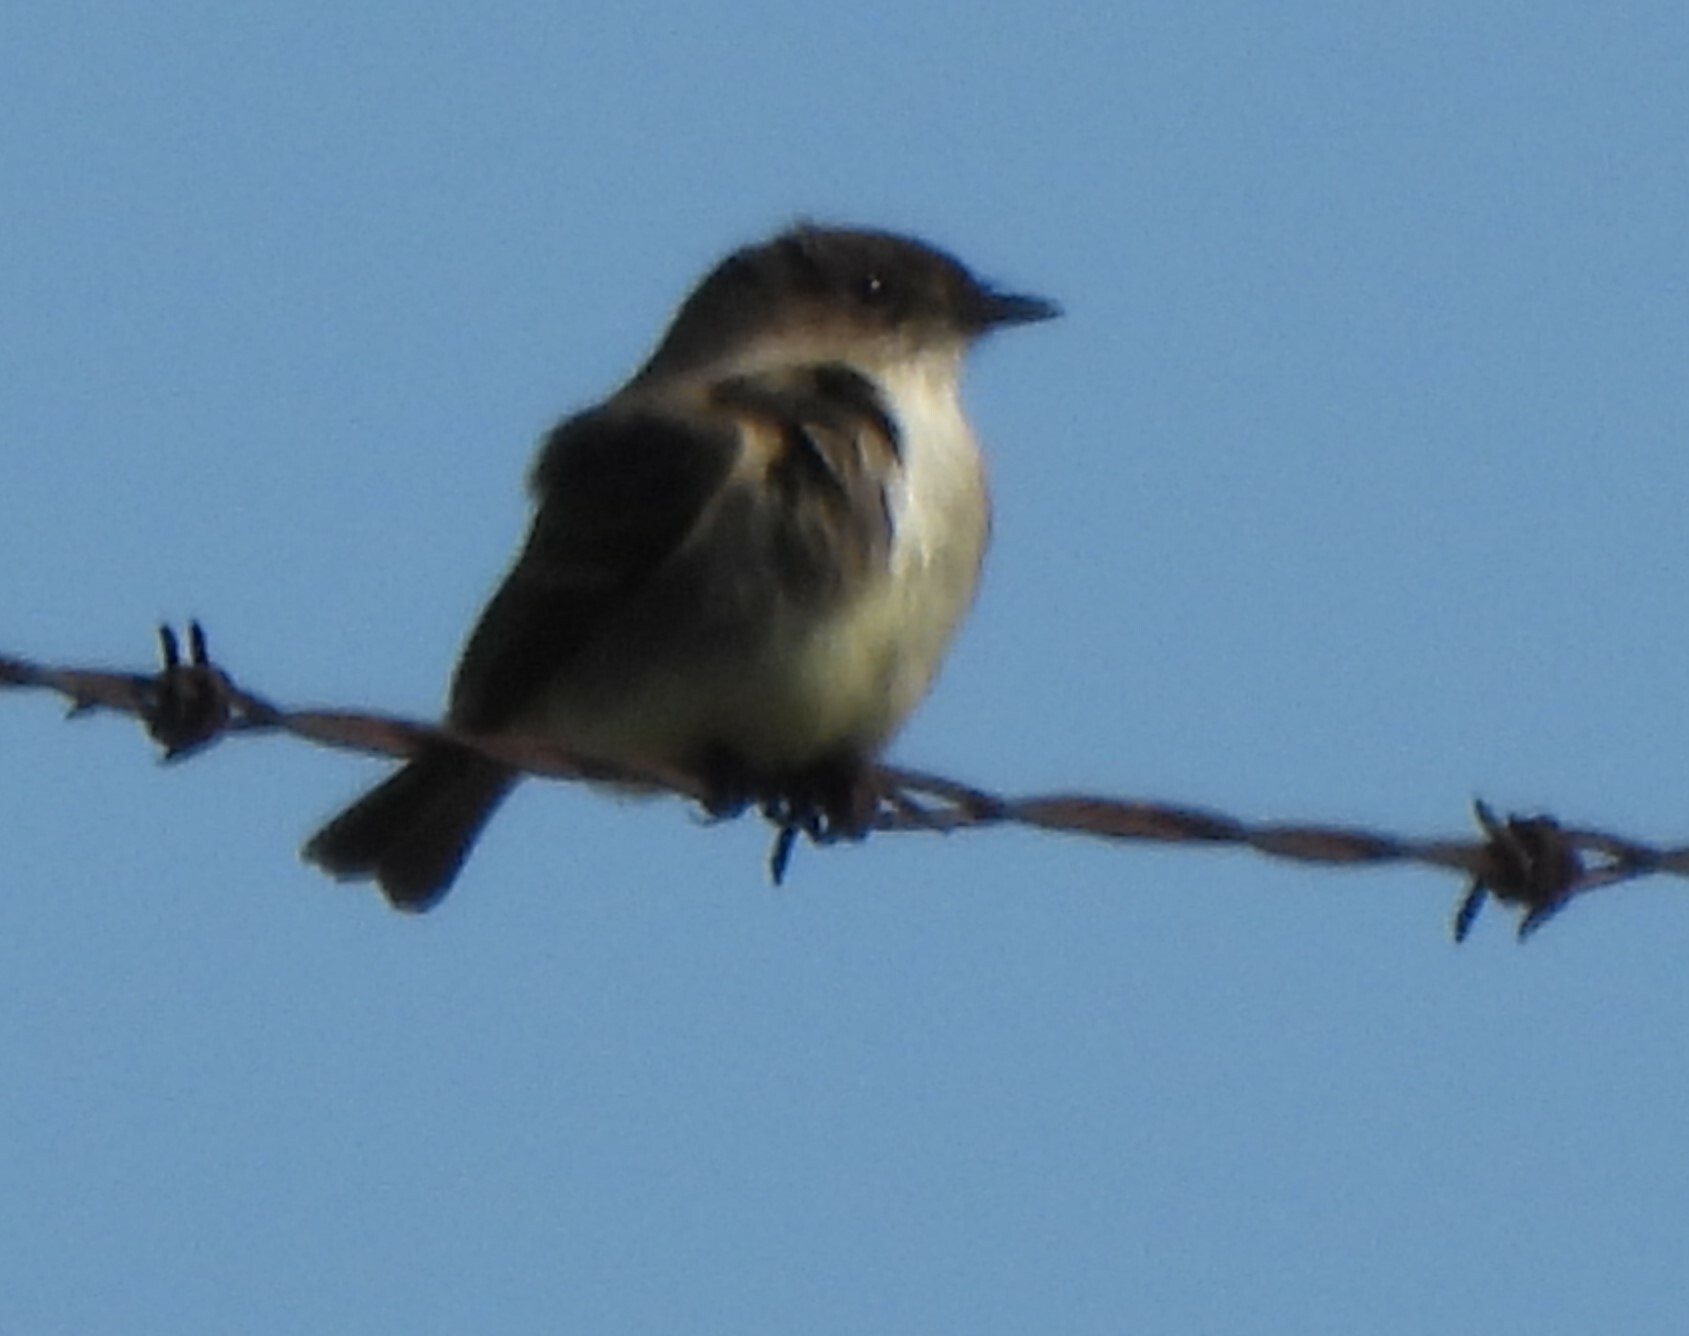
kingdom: Animalia
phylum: Chordata
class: Aves
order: Passeriformes
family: Tyrannidae
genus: Sayornis
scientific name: Sayornis phoebe
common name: Eastern phoebe
